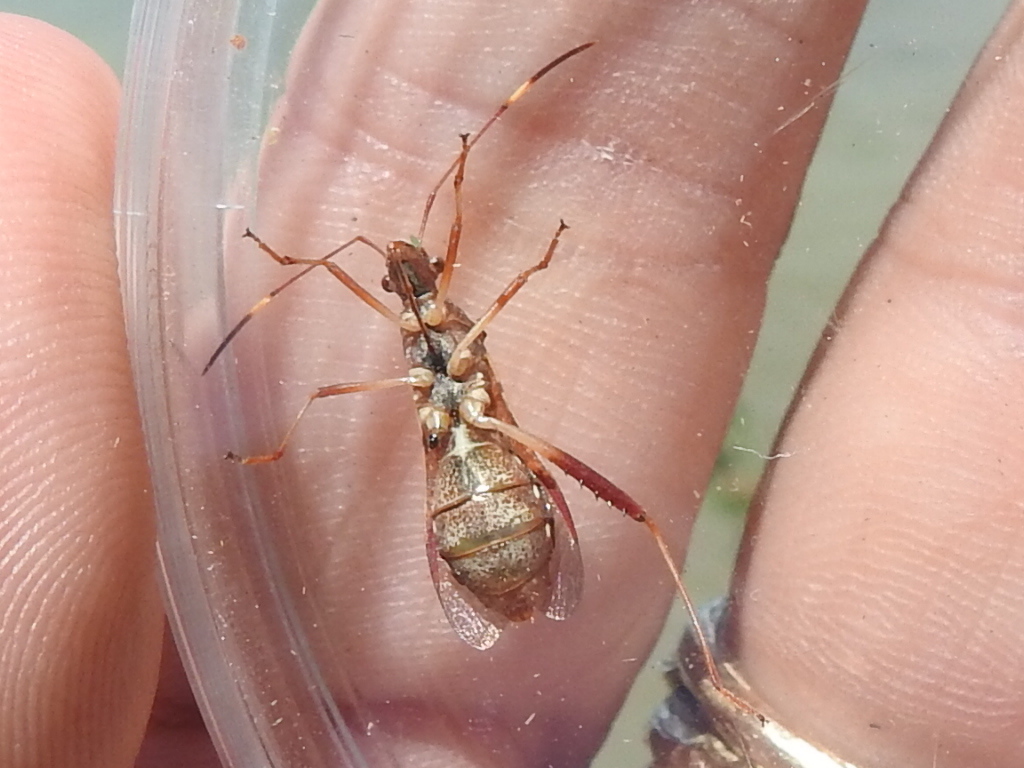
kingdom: Animalia
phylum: Arthropoda
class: Insecta
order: Hemiptera
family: Alydidae
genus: Megalotomus
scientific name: Megalotomus quinquespinosus
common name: Lupine bug
